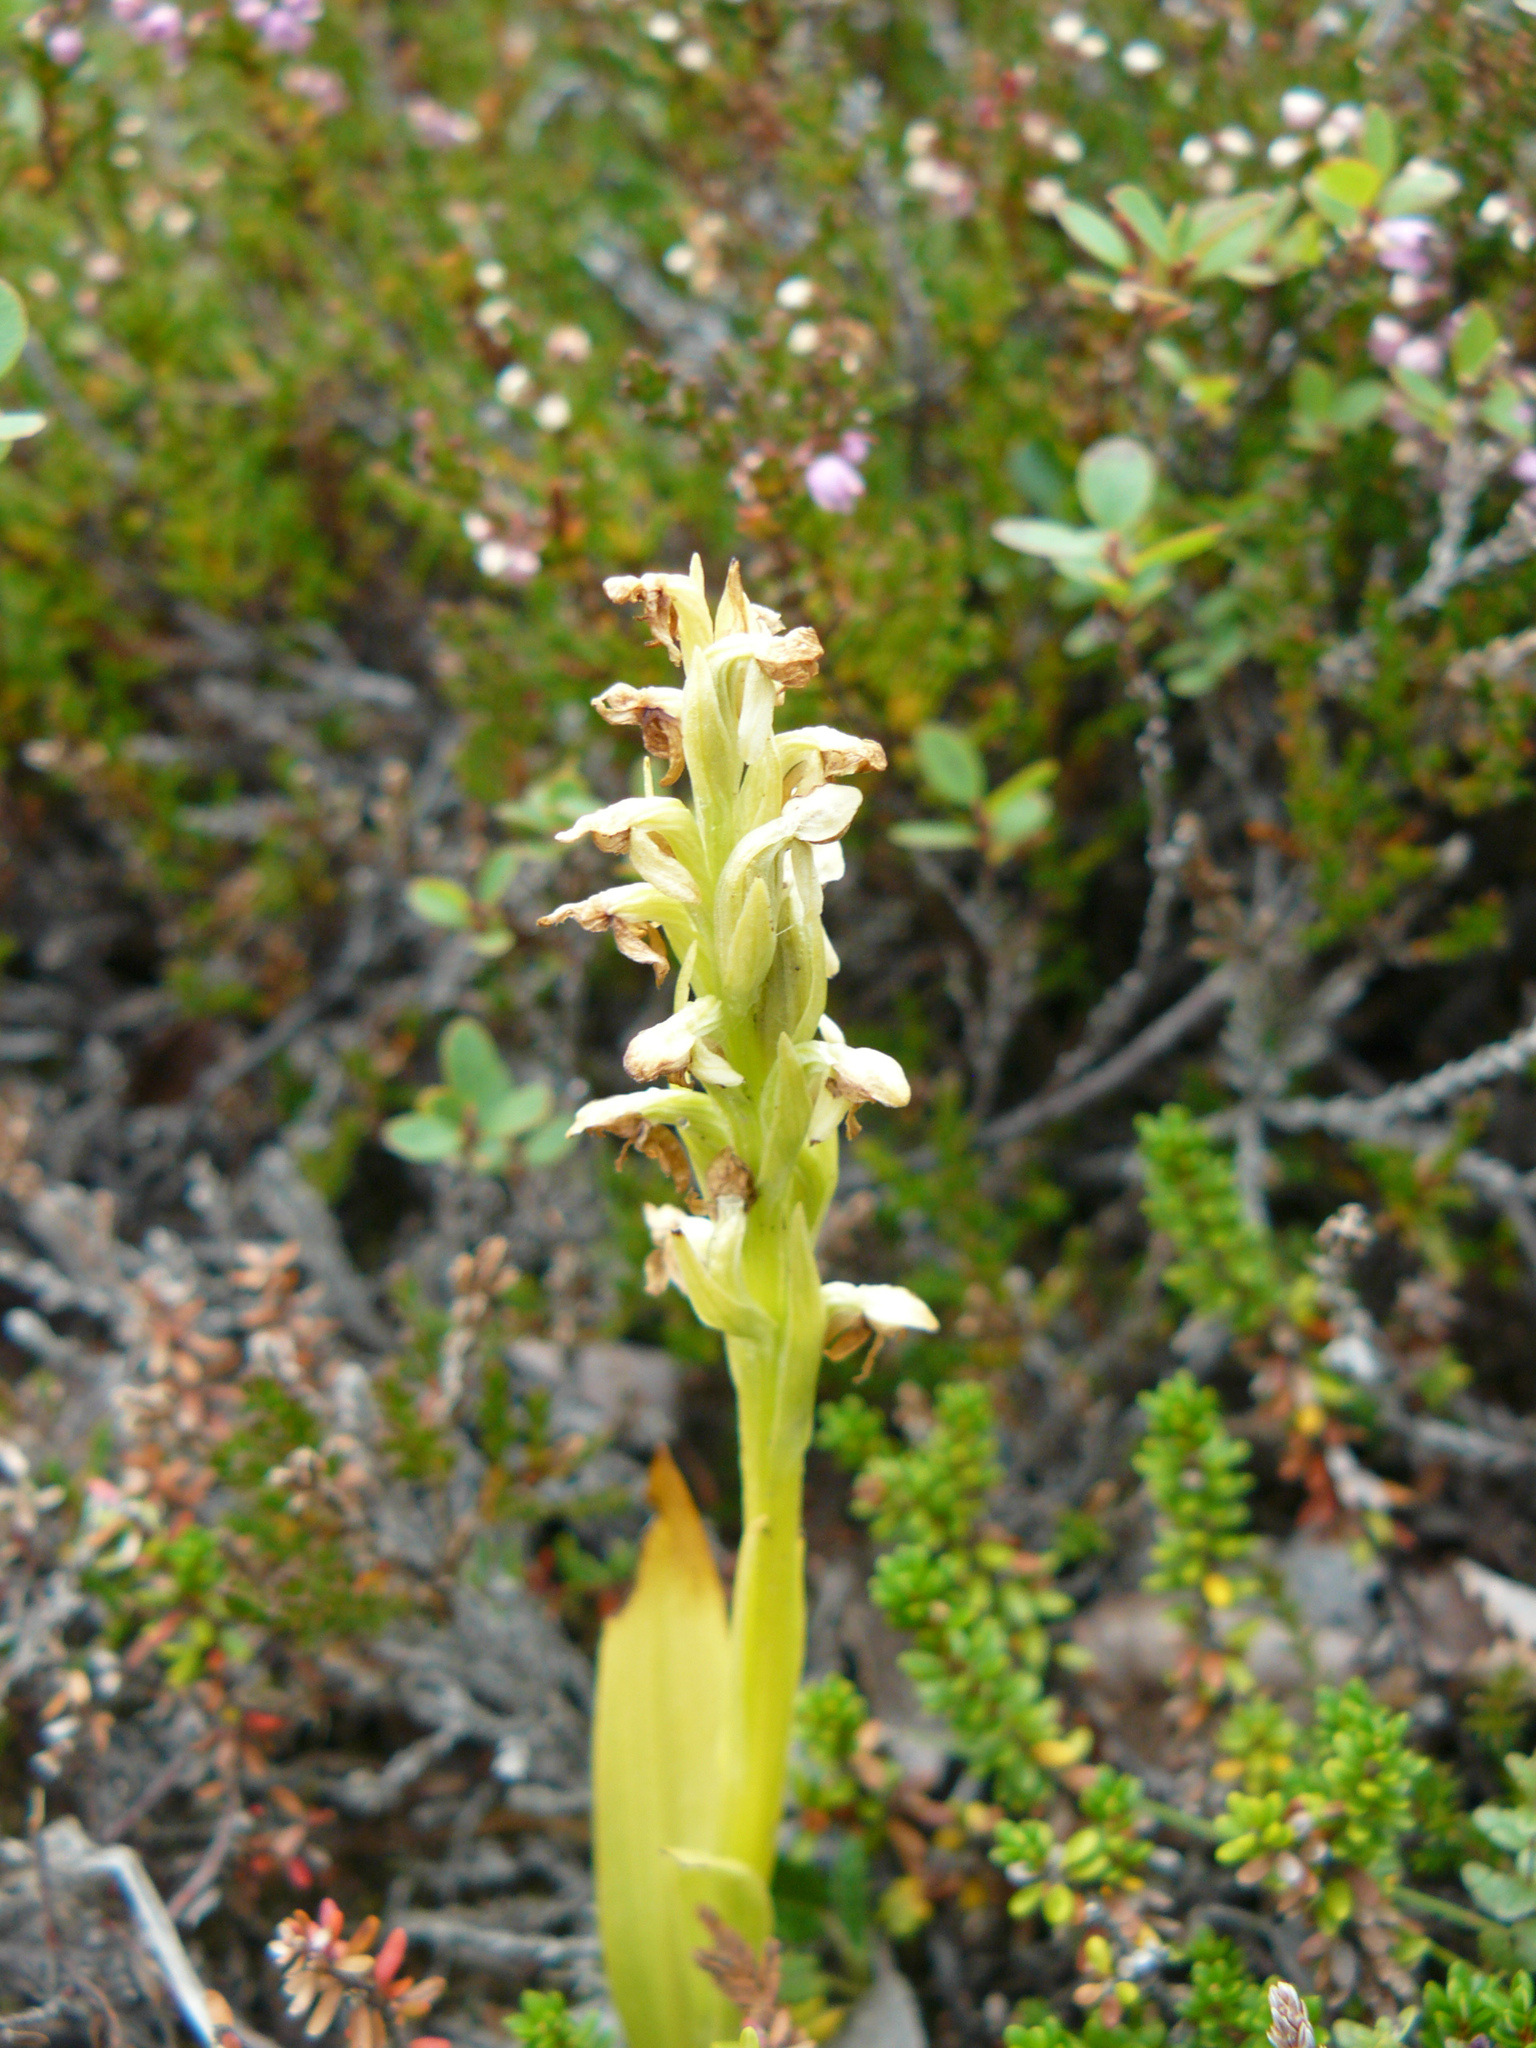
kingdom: Plantae
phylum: Tracheophyta
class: Liliopsida
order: Asparagales
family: Orchidaceae
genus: Platanthera
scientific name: Platanthera hyperborea
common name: Northern green orchid
